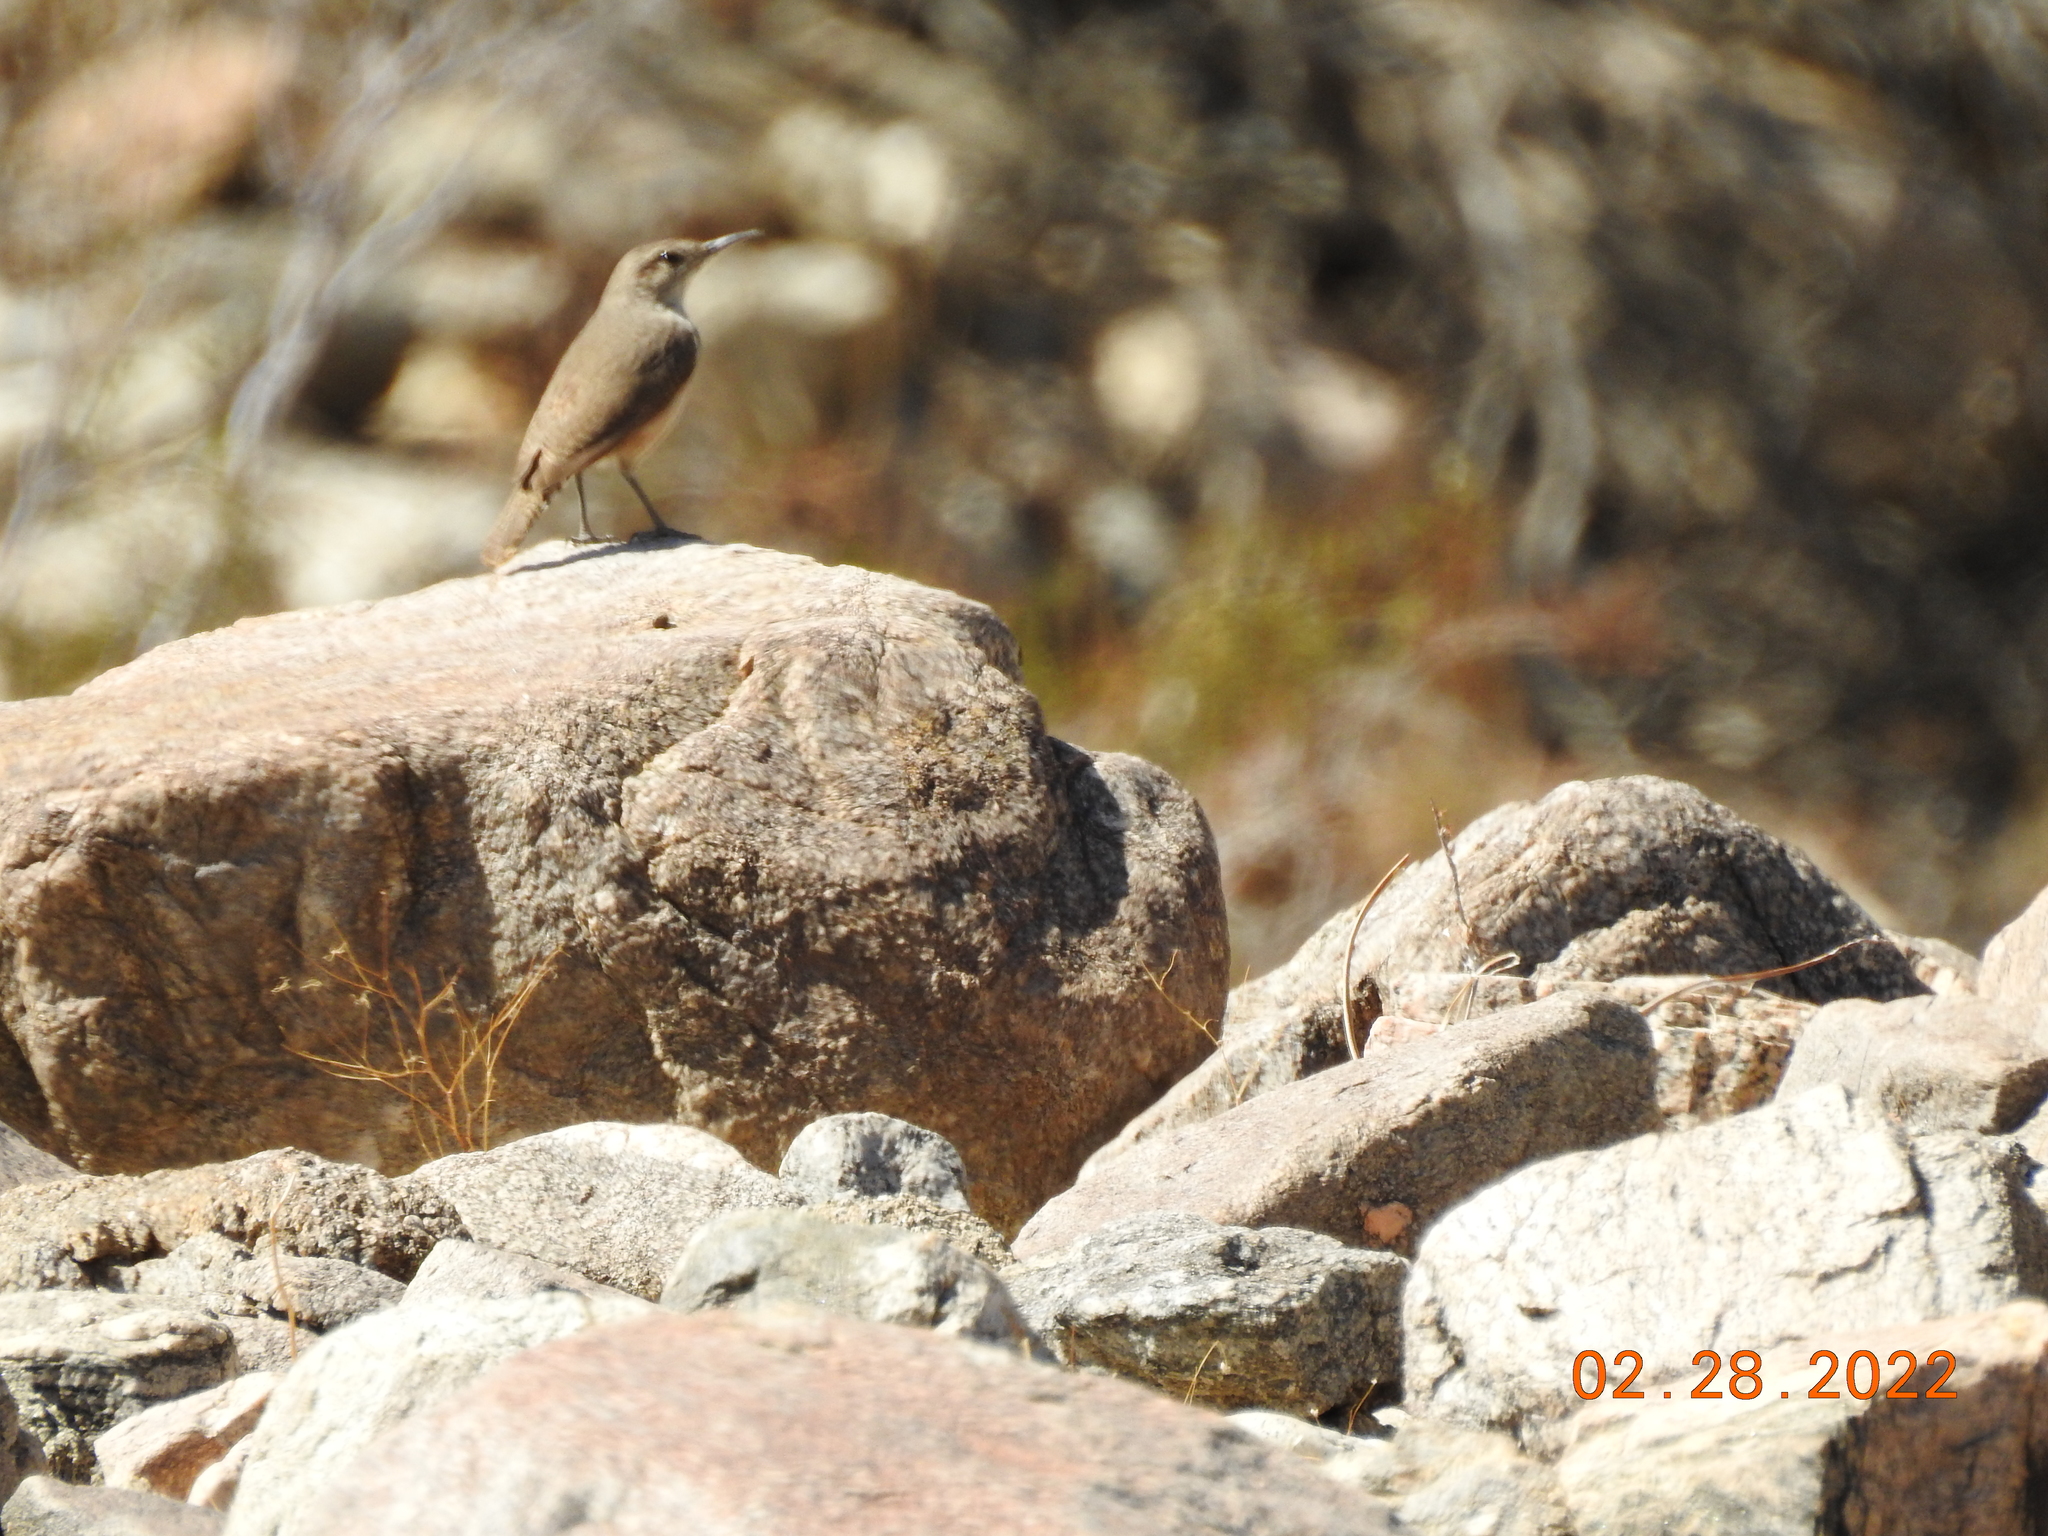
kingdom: Animalia
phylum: Chordata
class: Aves
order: Passeriformes
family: Troglodytidae
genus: Salpinctes
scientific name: Salpinctes obsoletus
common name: Rock wren
